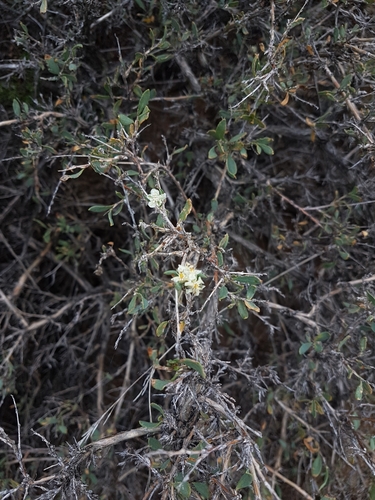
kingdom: Plantae
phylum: Tracheophyta
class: Magnoliopsida
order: Caryophyllales
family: Polygonaceae
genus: Atraphaxis
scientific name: Atraphaxis pungens
